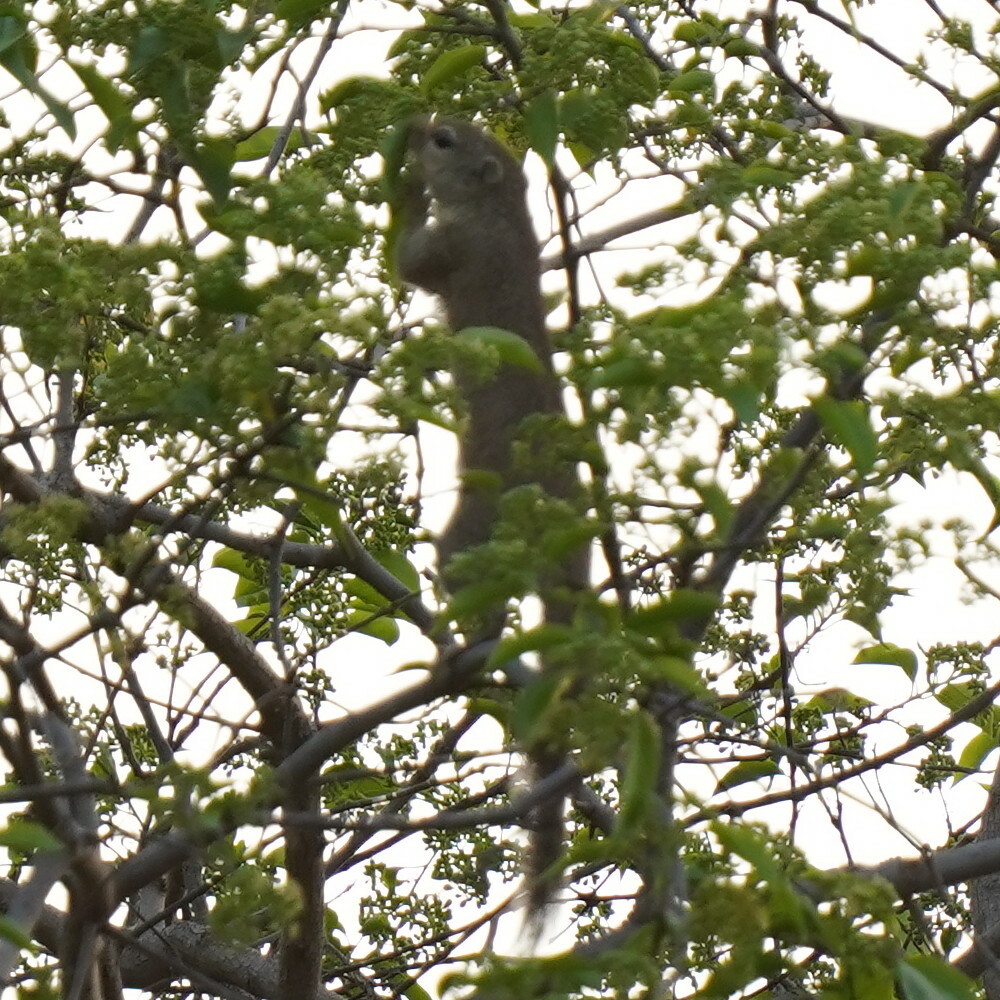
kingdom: Animalia
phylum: Chordata
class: Mammalia
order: Rodentia
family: Sciuridae
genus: Heliosciurus
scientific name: Heliosciurus gambianus
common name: Gambian sun squirrel
